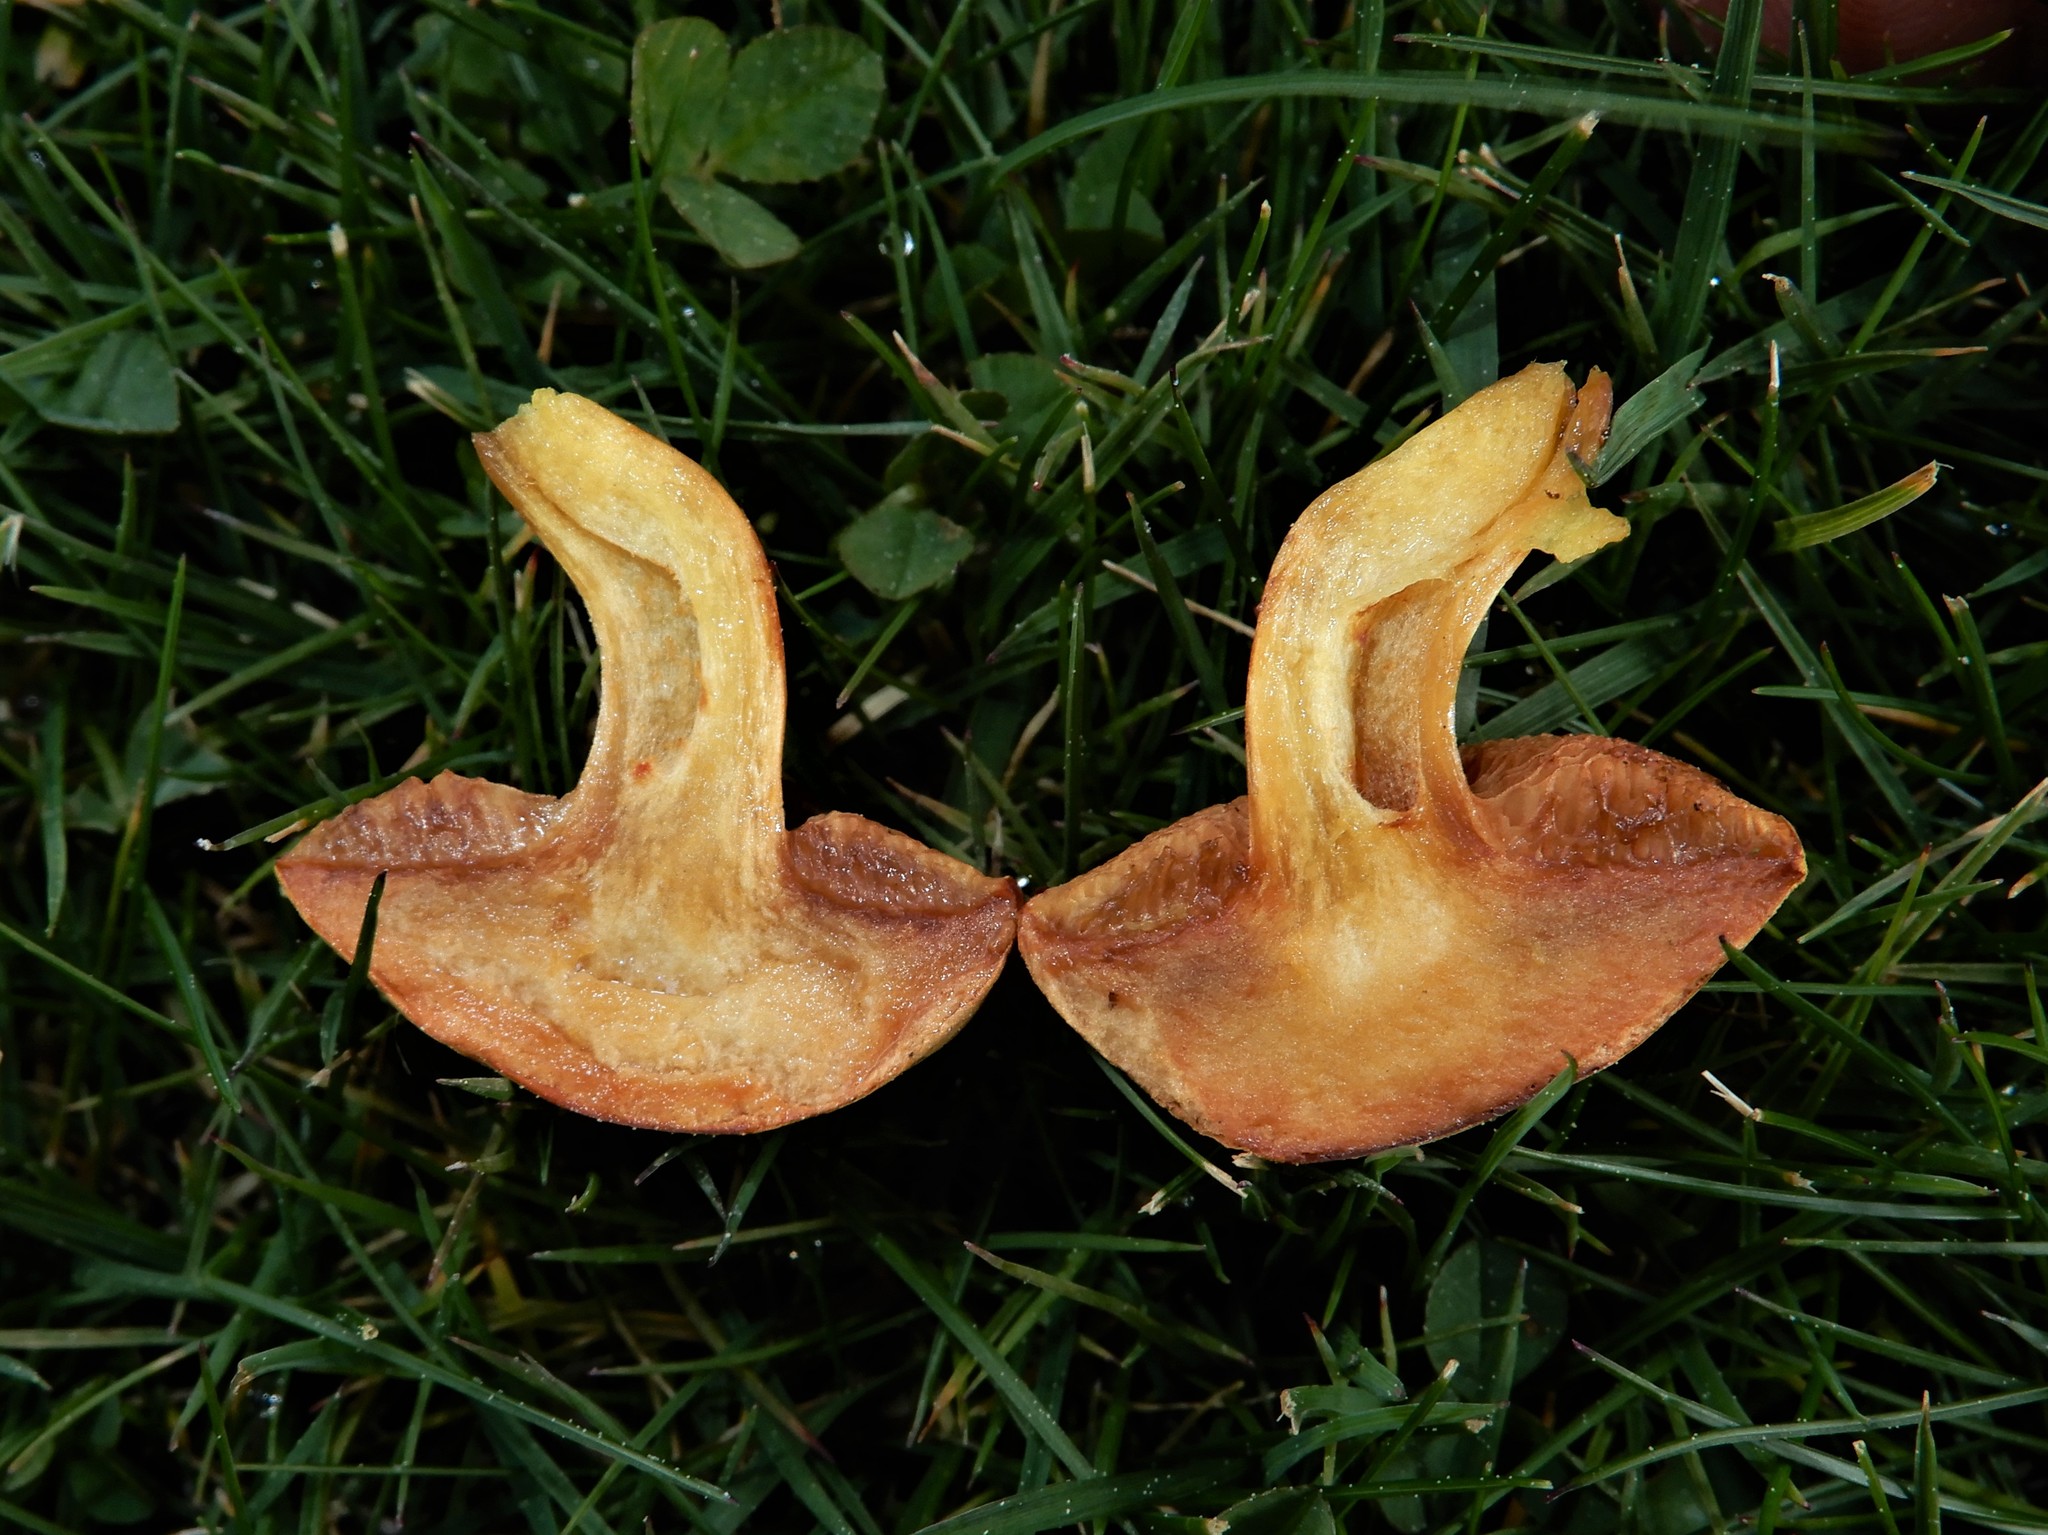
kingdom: Fungi
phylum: Basidiomycota
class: Agaricomycetes
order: Boletales
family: Boletaceae
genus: Chalciporus
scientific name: Chalciporus piperatus
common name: Peppery bolete
